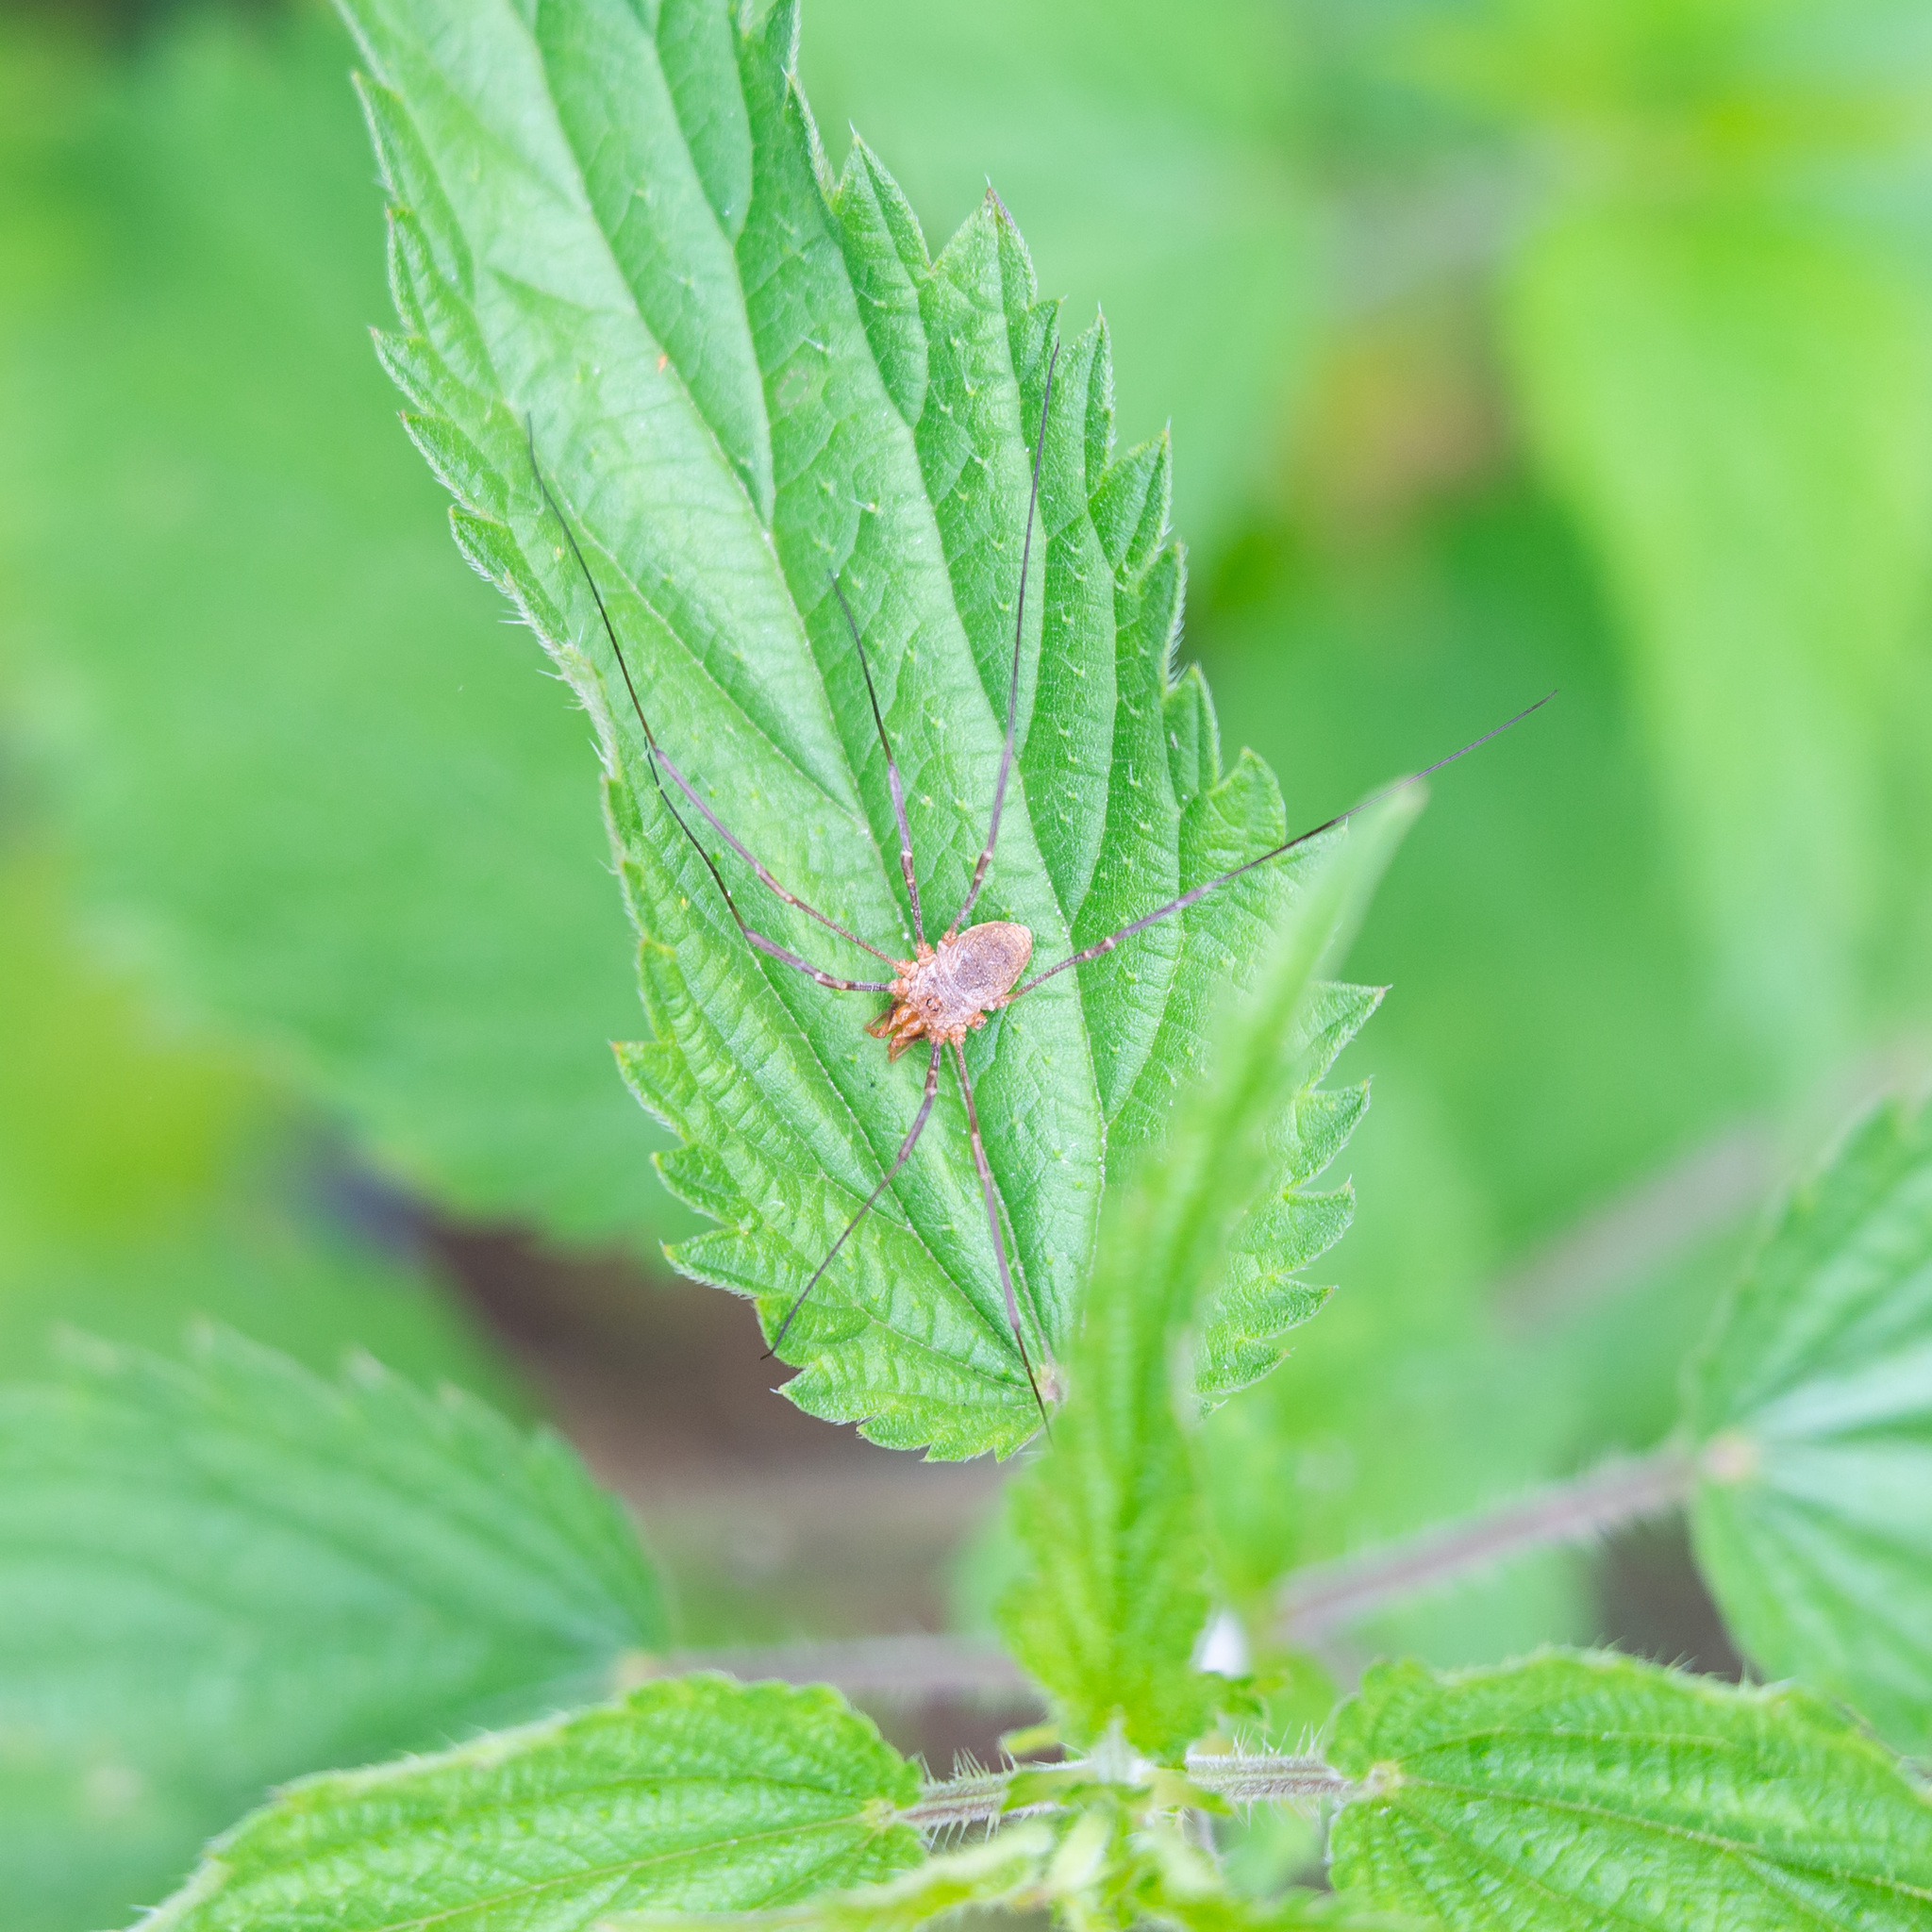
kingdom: Animalia
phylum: Arthropoda
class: Arachnida
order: Opiliones
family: Phalangiidae
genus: Phalangium
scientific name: Phalangium opilio
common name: Daddy longleg
